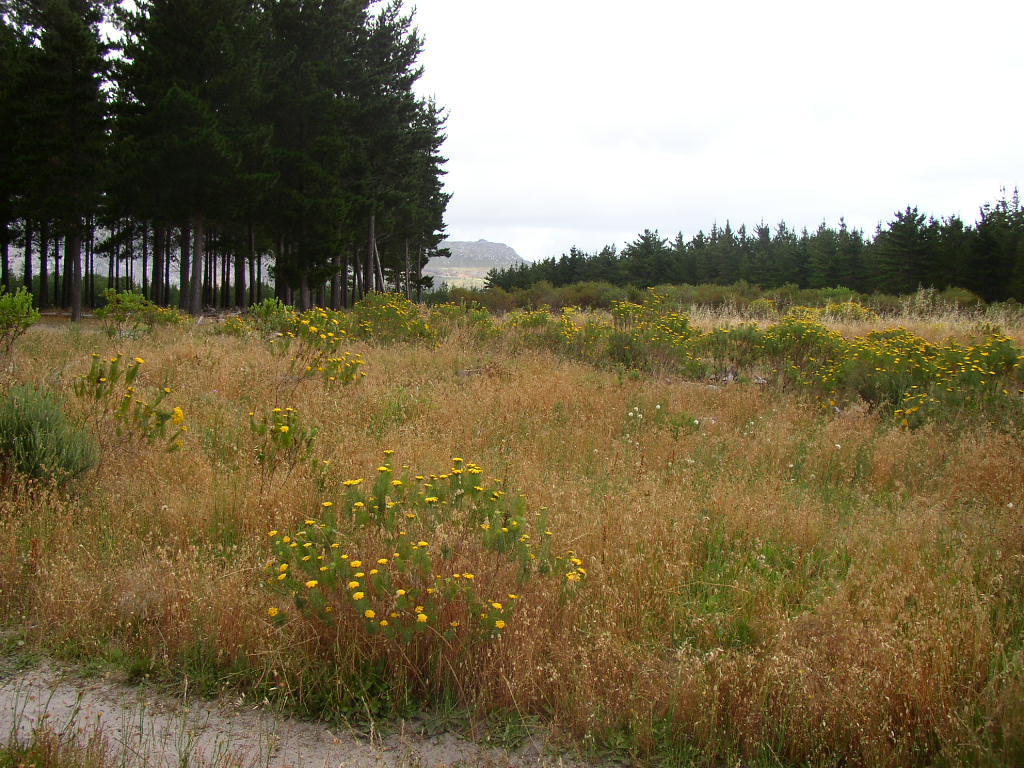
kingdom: Plantae
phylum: Tracheophyta
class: Magnoliopsida
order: Asterales
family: Asteraceae
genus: Athanasia
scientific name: Athanasia crithmifolia
